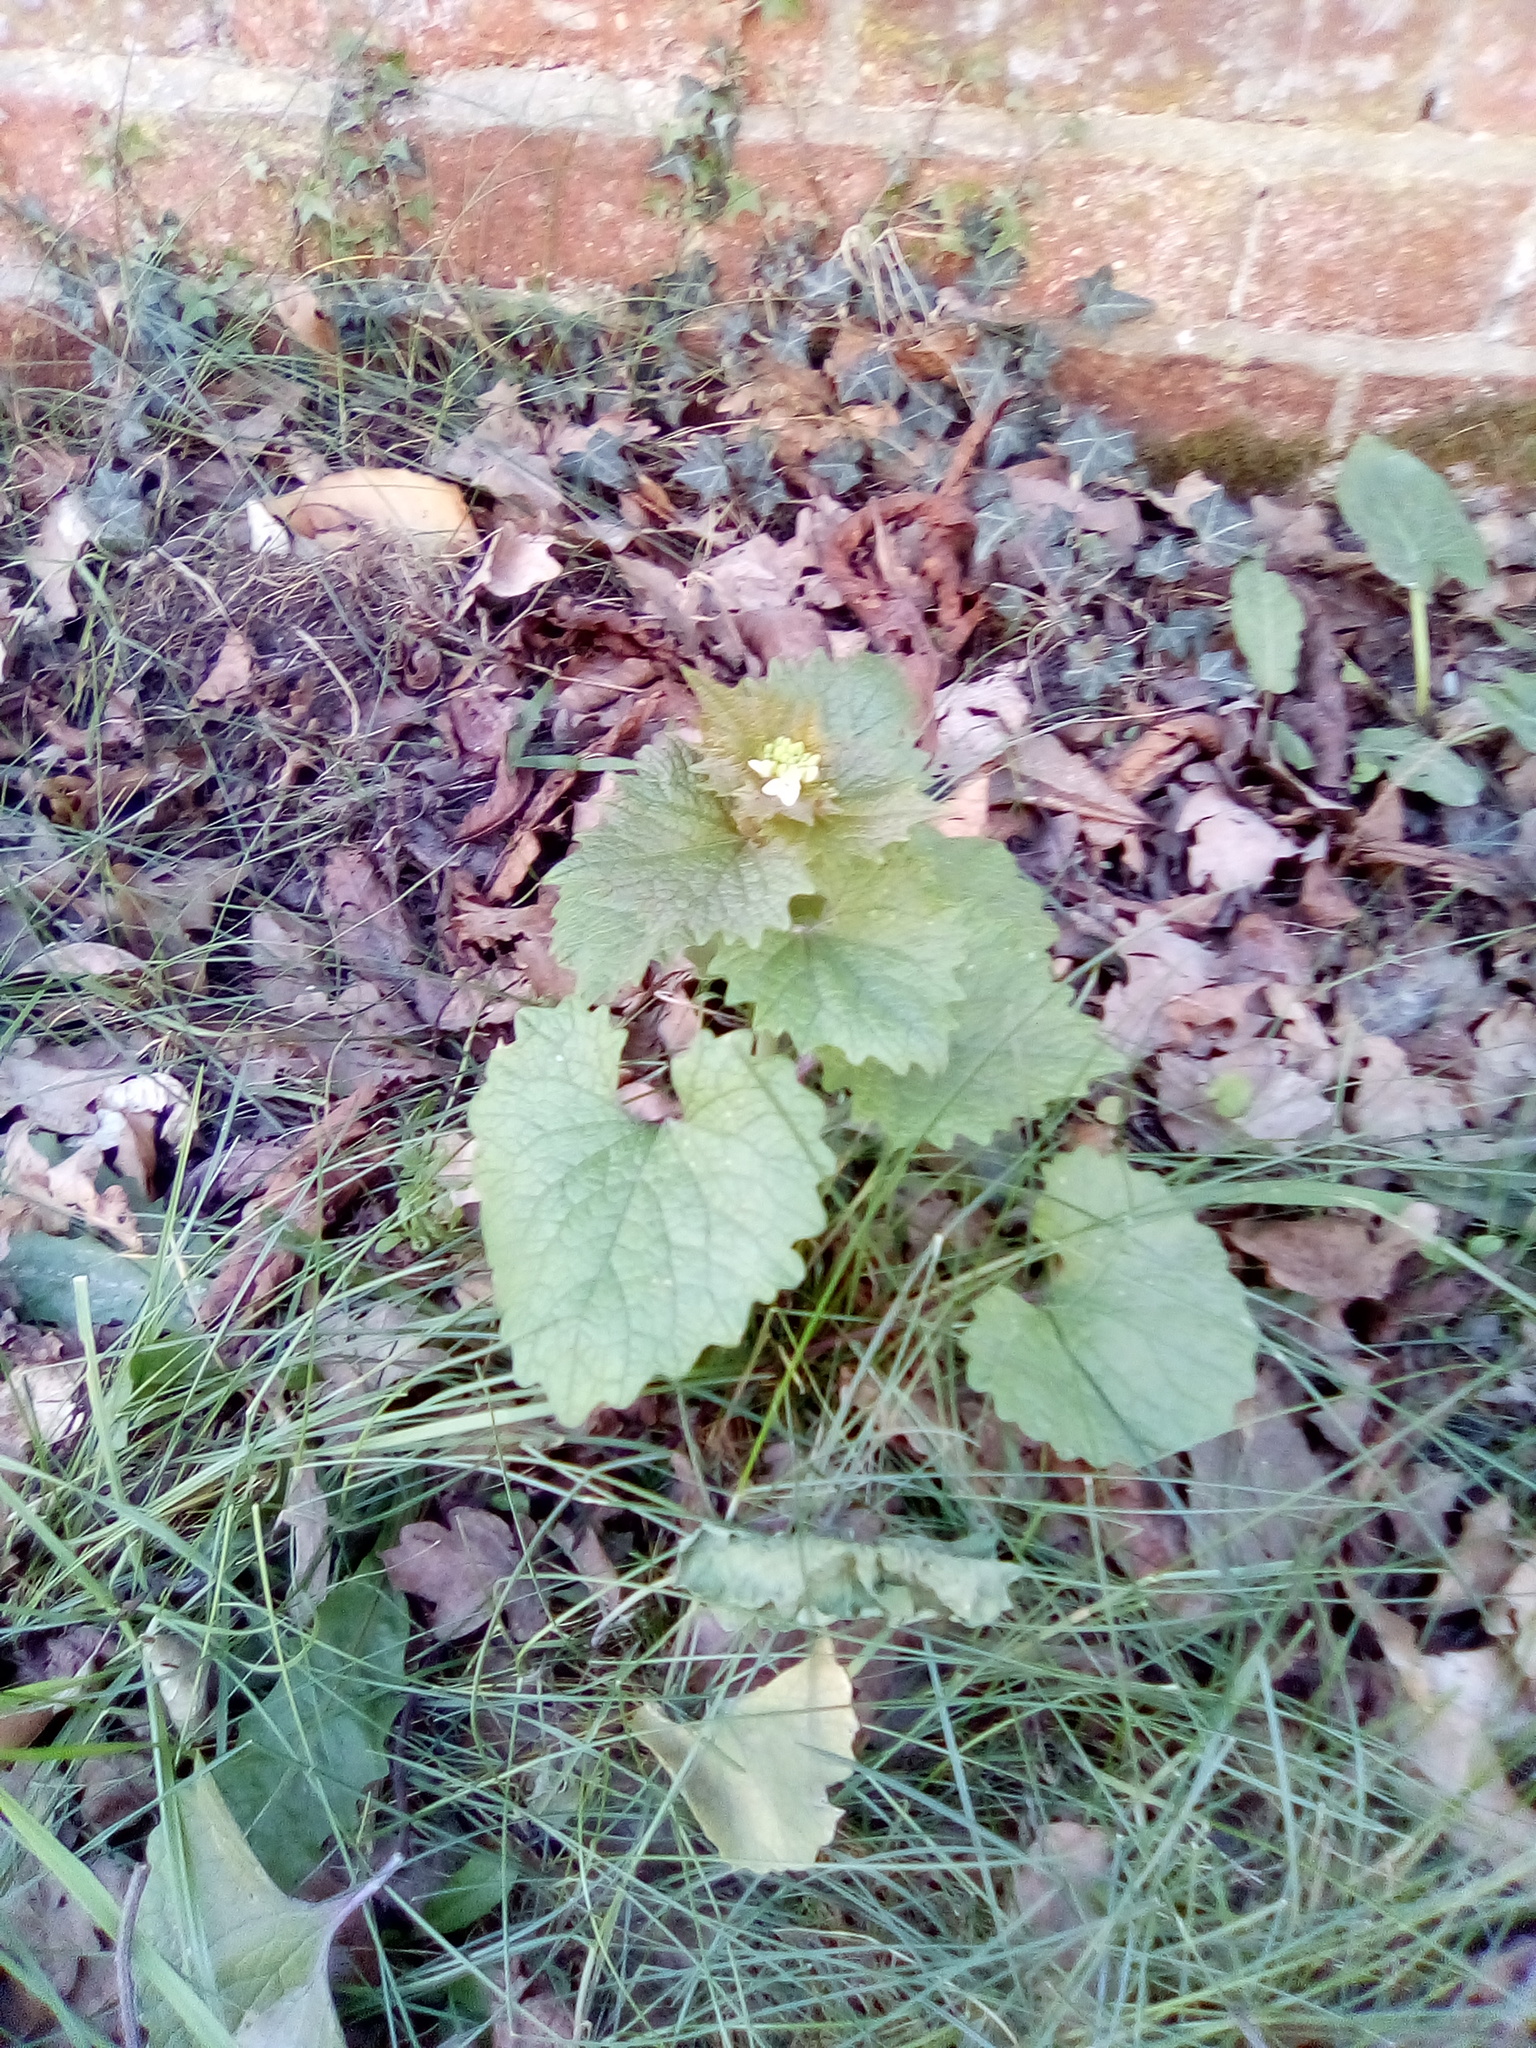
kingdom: Plantae
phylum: Tracheophyta
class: Magnoliopsida
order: Brassicales
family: Brassicaceae
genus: Alliaria
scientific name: Alliaria petiolata
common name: Garlic mustard
